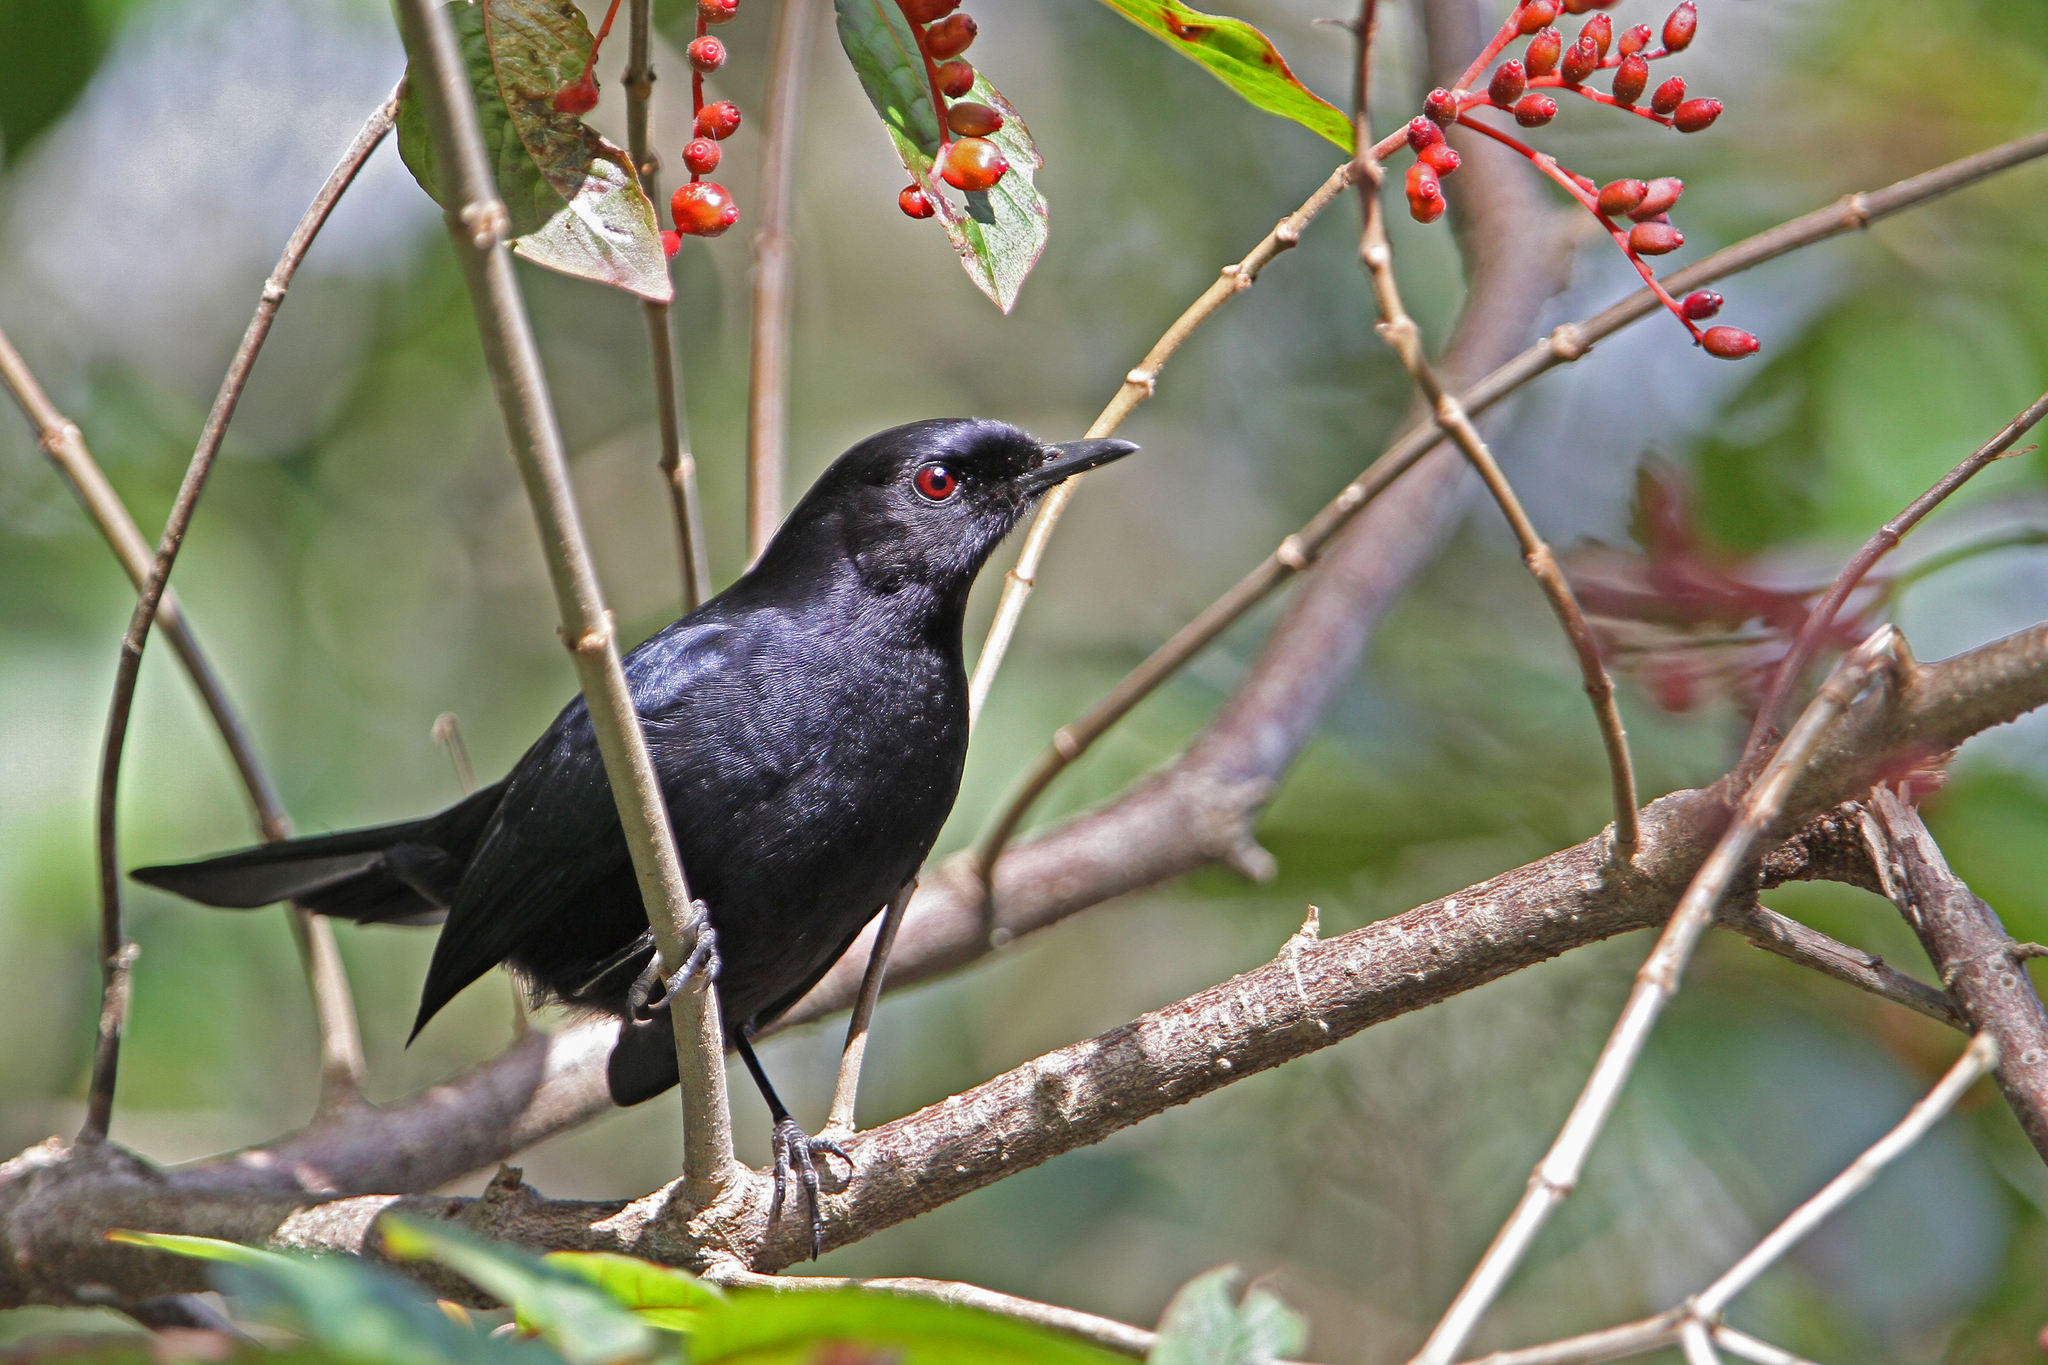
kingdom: Animalia
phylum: Chordata
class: Aves
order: Passeriformes
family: Mimidae
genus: Melanoptila
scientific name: Melanoptila glabrirostris
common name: Black catbird
